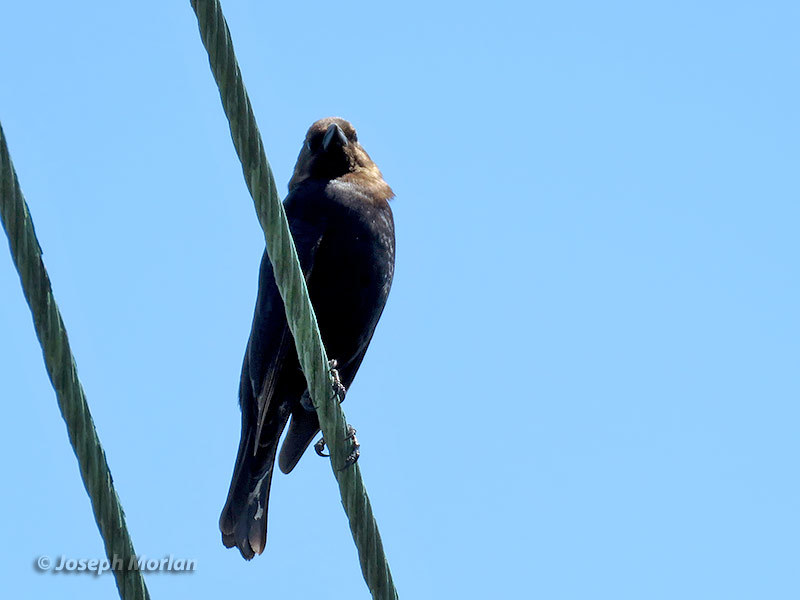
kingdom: Animalia
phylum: Chordata
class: Aves
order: Passeriformes
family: Icteridae
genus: Molothrus
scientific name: Molothrus ater
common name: Brown-headed cowbird
